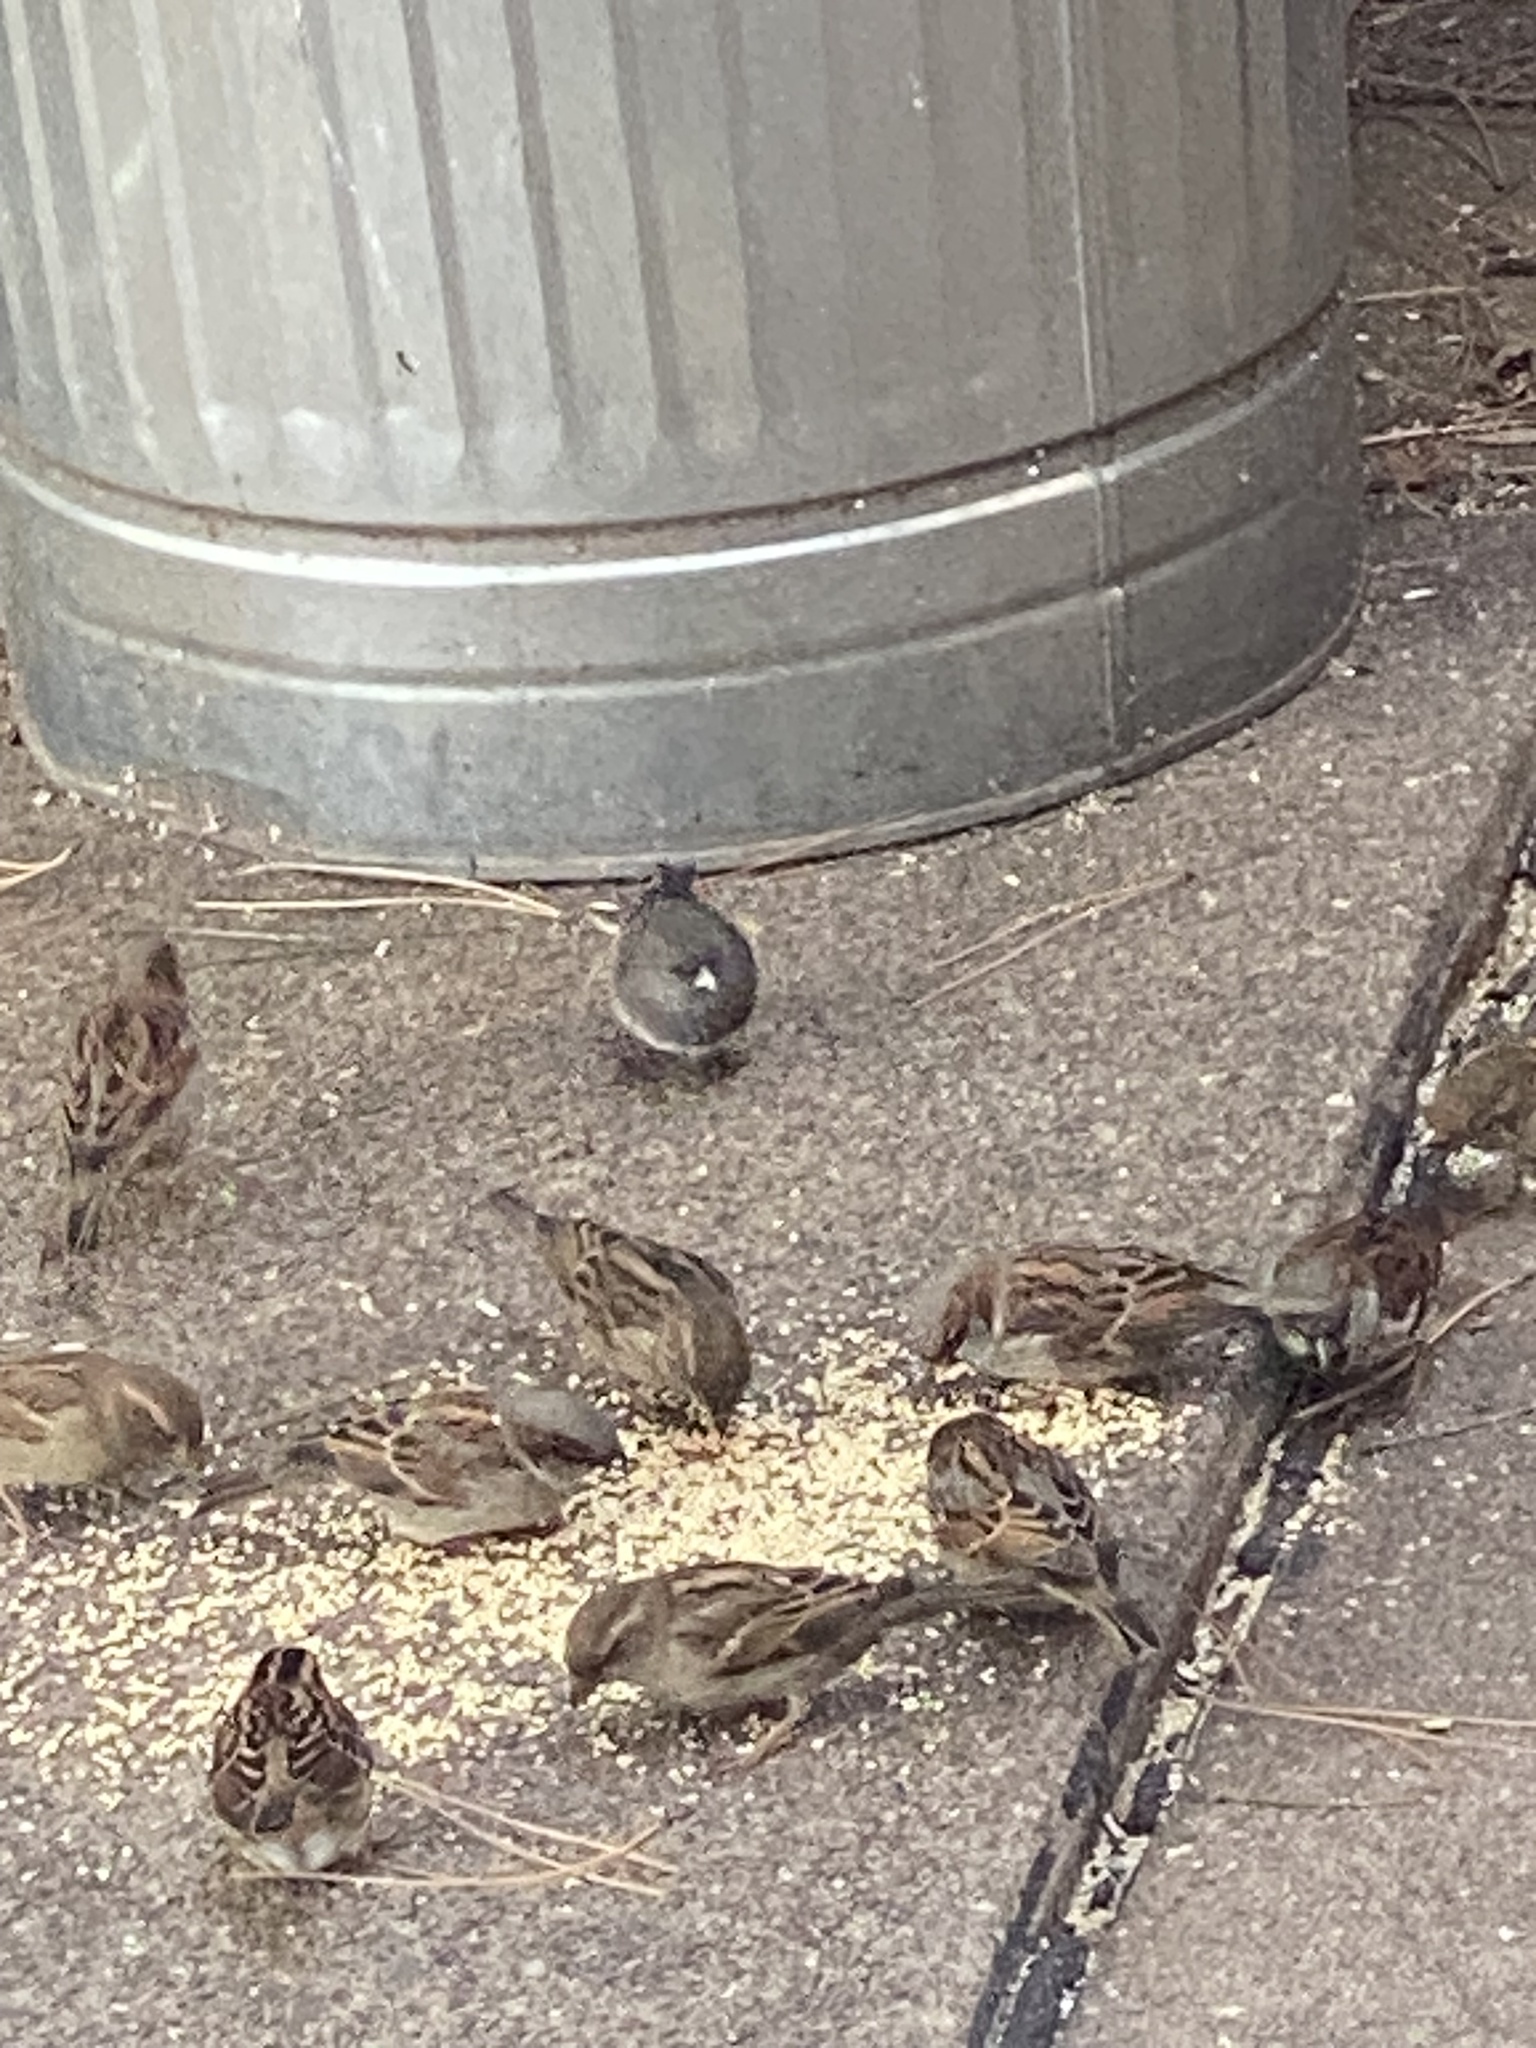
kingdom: Animalia
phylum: Chordata
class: Aves
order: Passeriformes
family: Passeridae
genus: Passer
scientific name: Passer domesticus
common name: House sparrow
